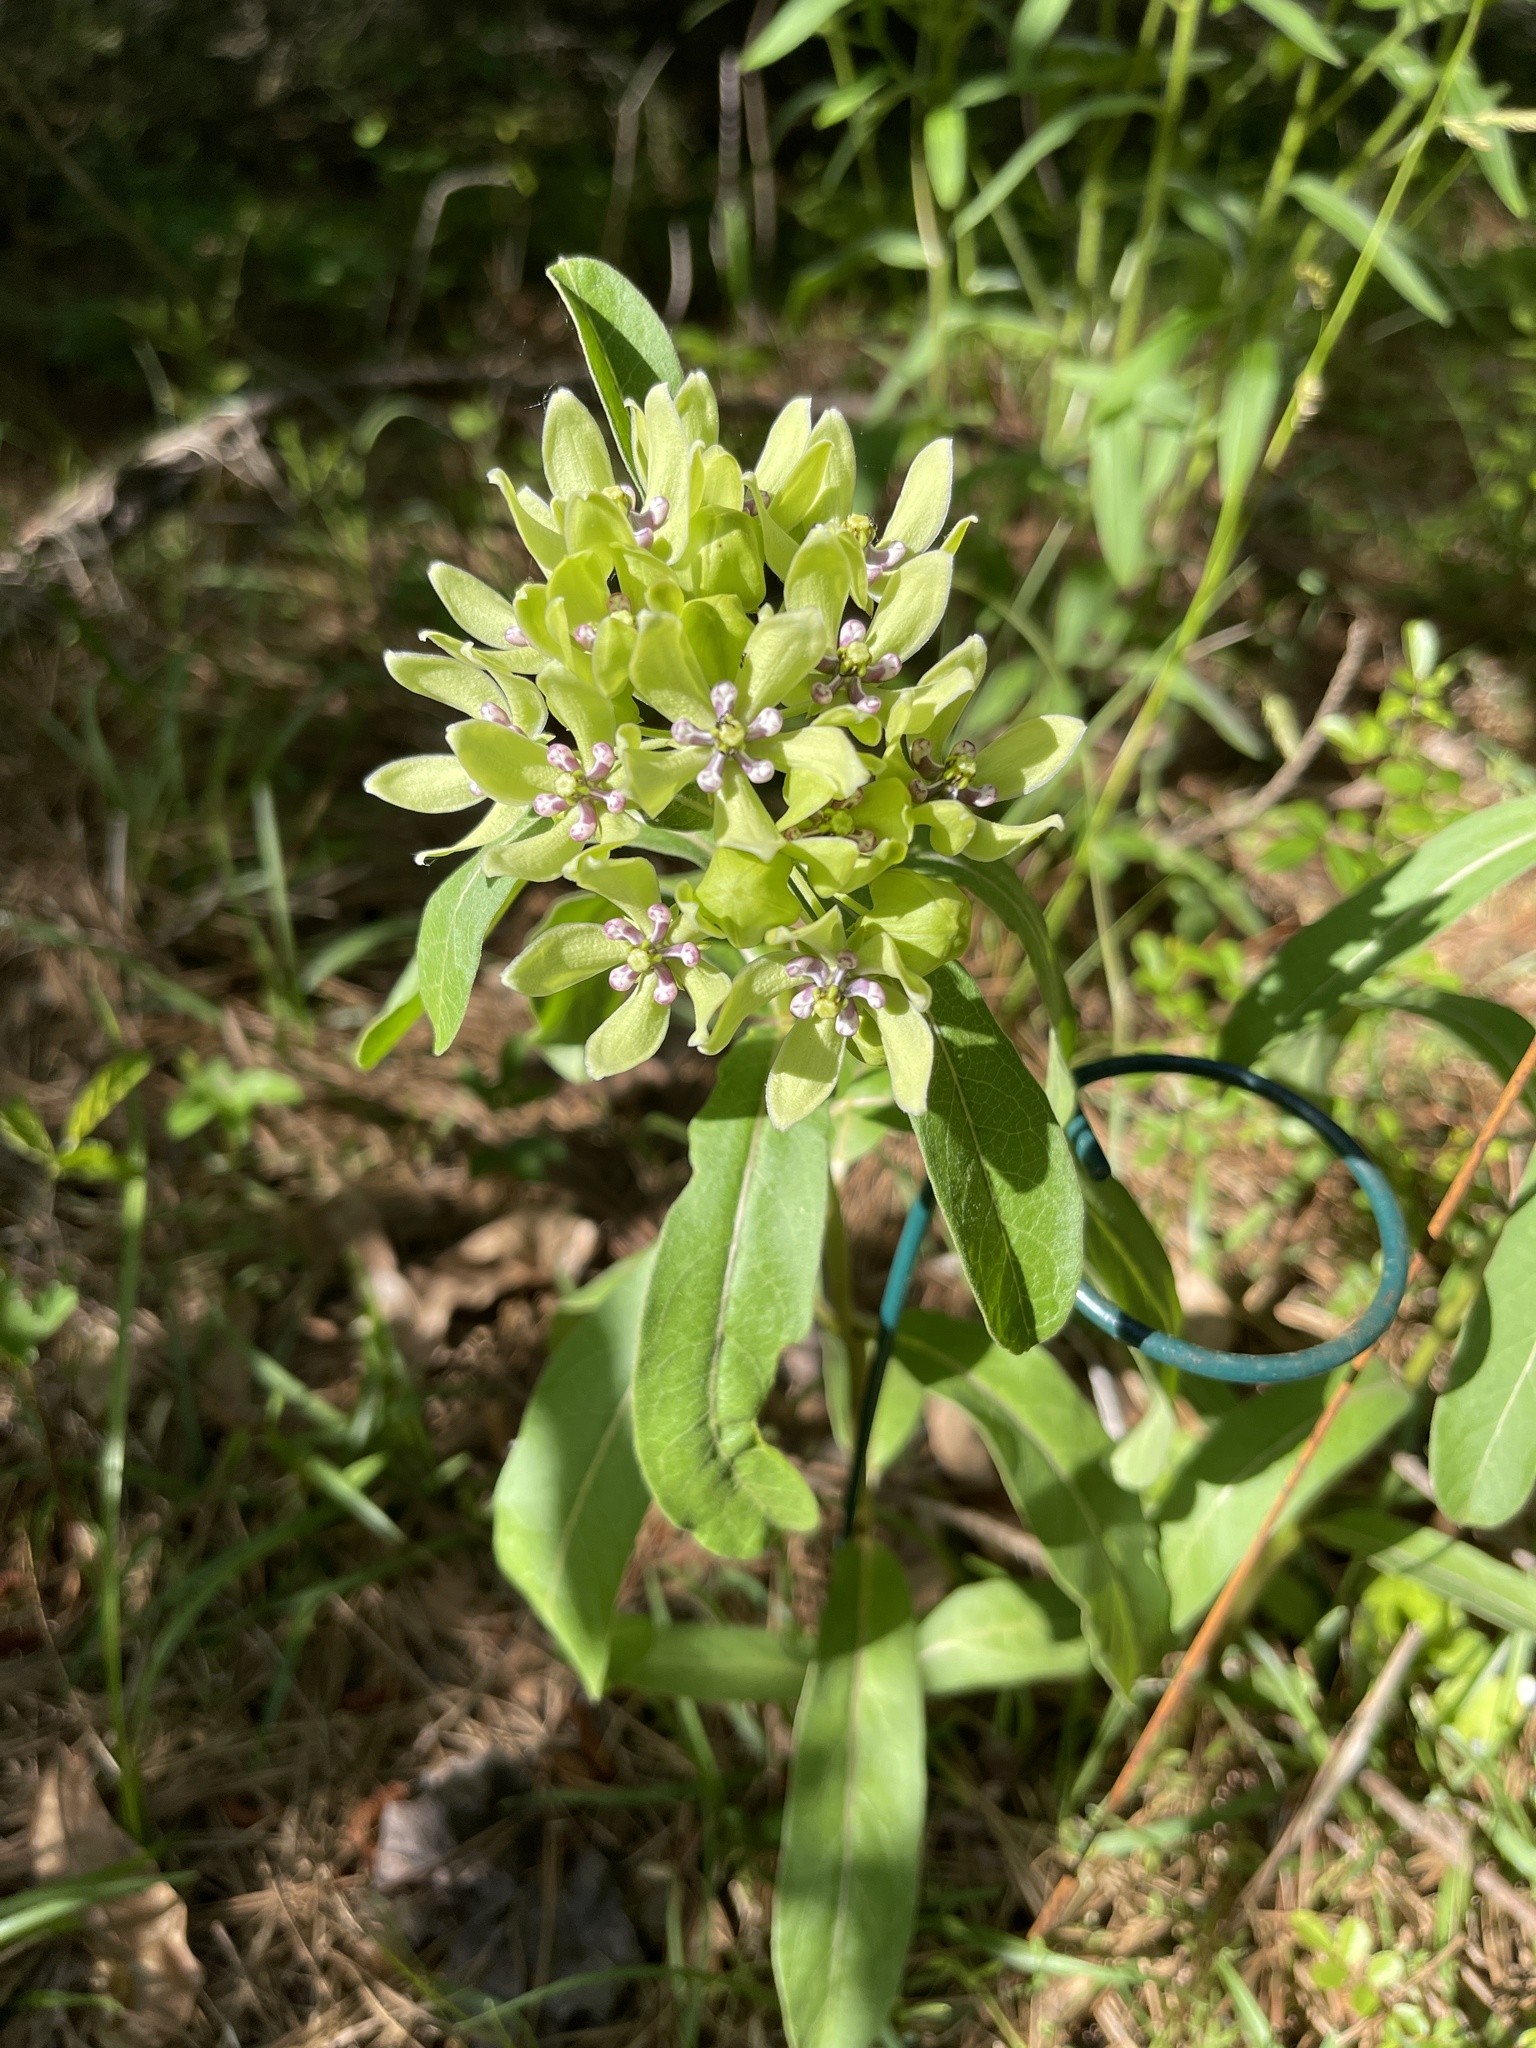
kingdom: Plantae
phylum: Tracheophyta
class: Magnoliopsida
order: Gentianales
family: Apocynaceae
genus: Asclepias
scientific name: Asclepias viridis
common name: Antelope-horns
